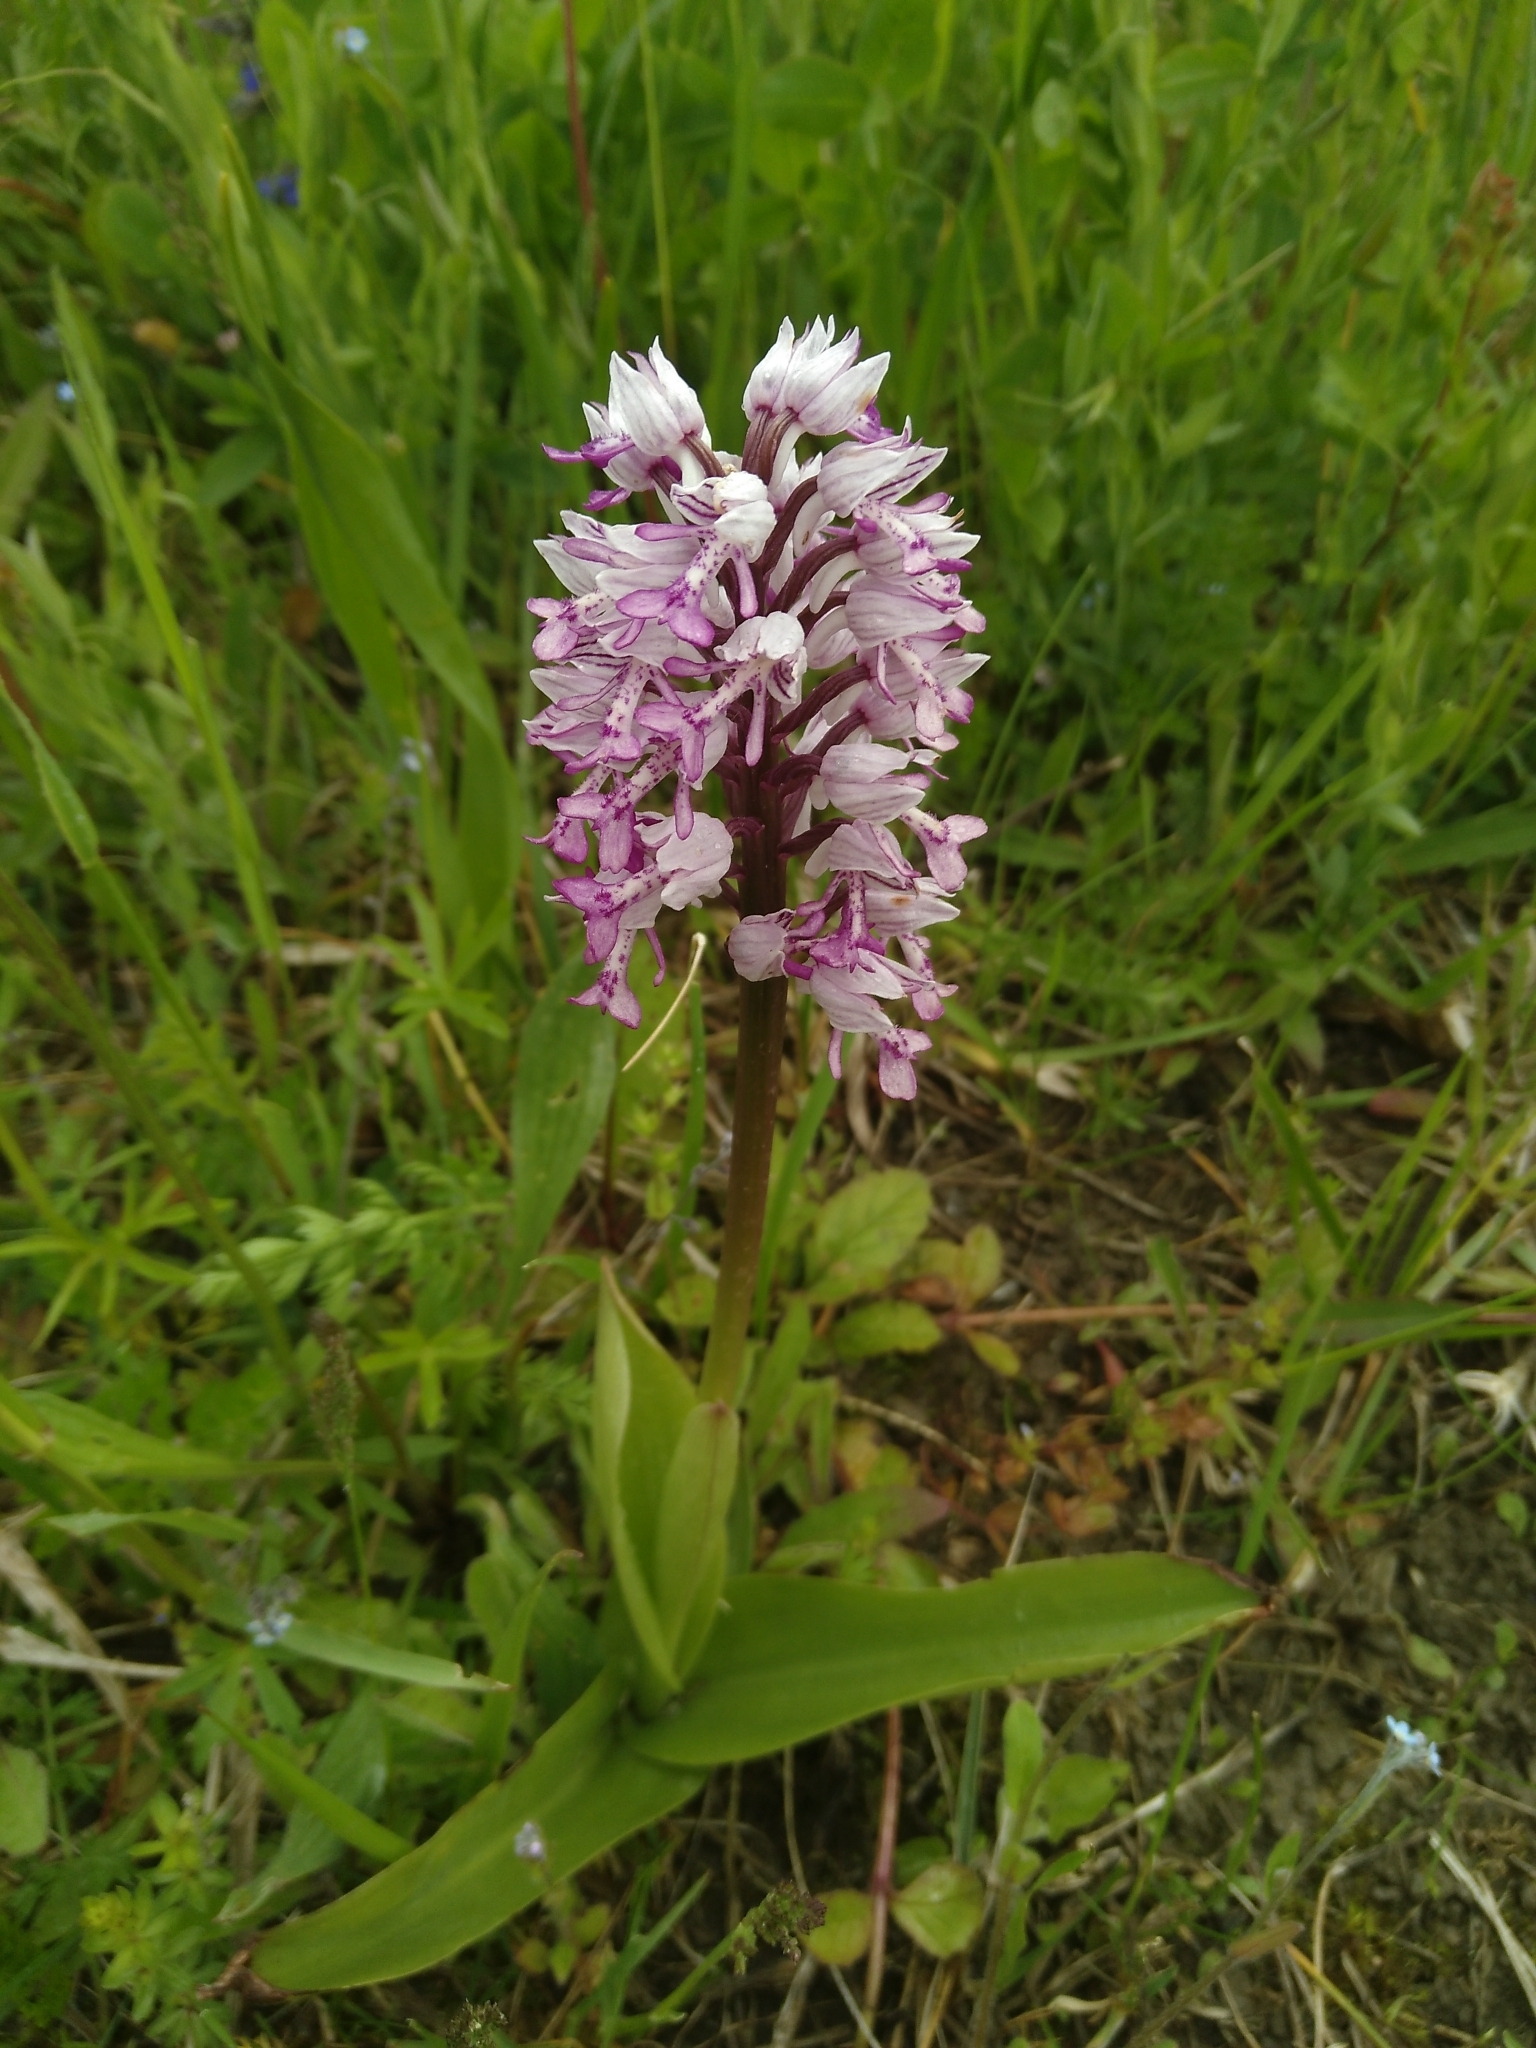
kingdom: Plantae
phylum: Tracheophyta
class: Liliopsida
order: Asparagales
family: Orchidaceae
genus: Orchis
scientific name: Orchis militaris
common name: Military orchid
